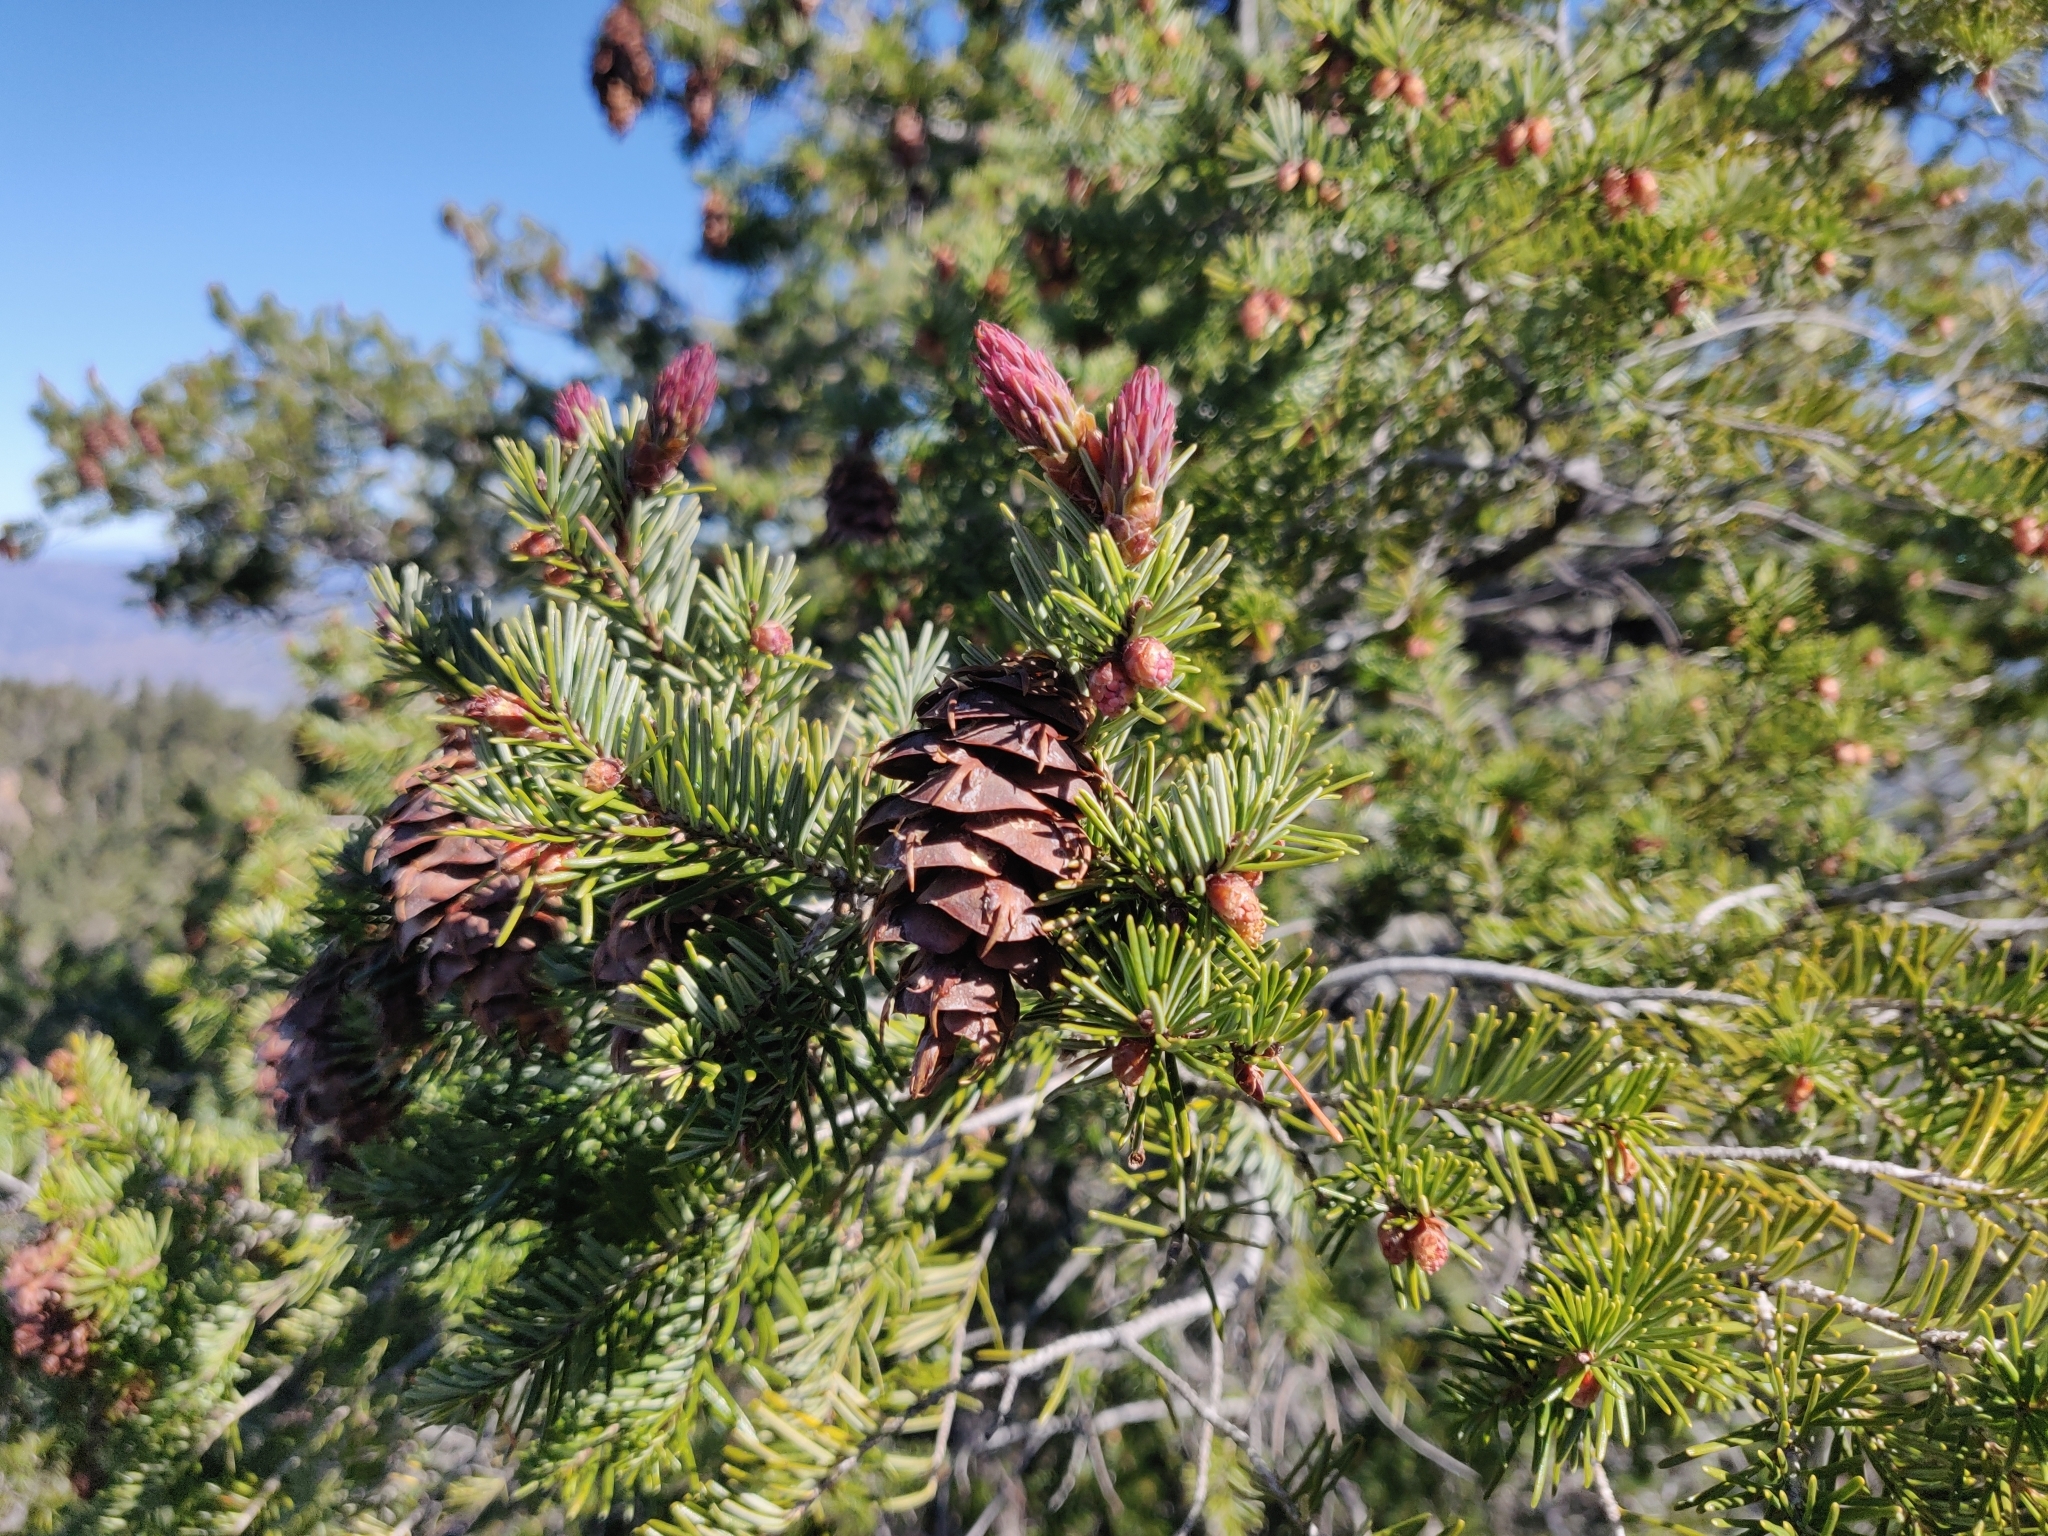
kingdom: Plantae
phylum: Tracheophyta
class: Pinopsida
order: Pinales
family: Pinaceae
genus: Pseudotsuga
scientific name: Pseudotsuga menziesii
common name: Douglas fir
